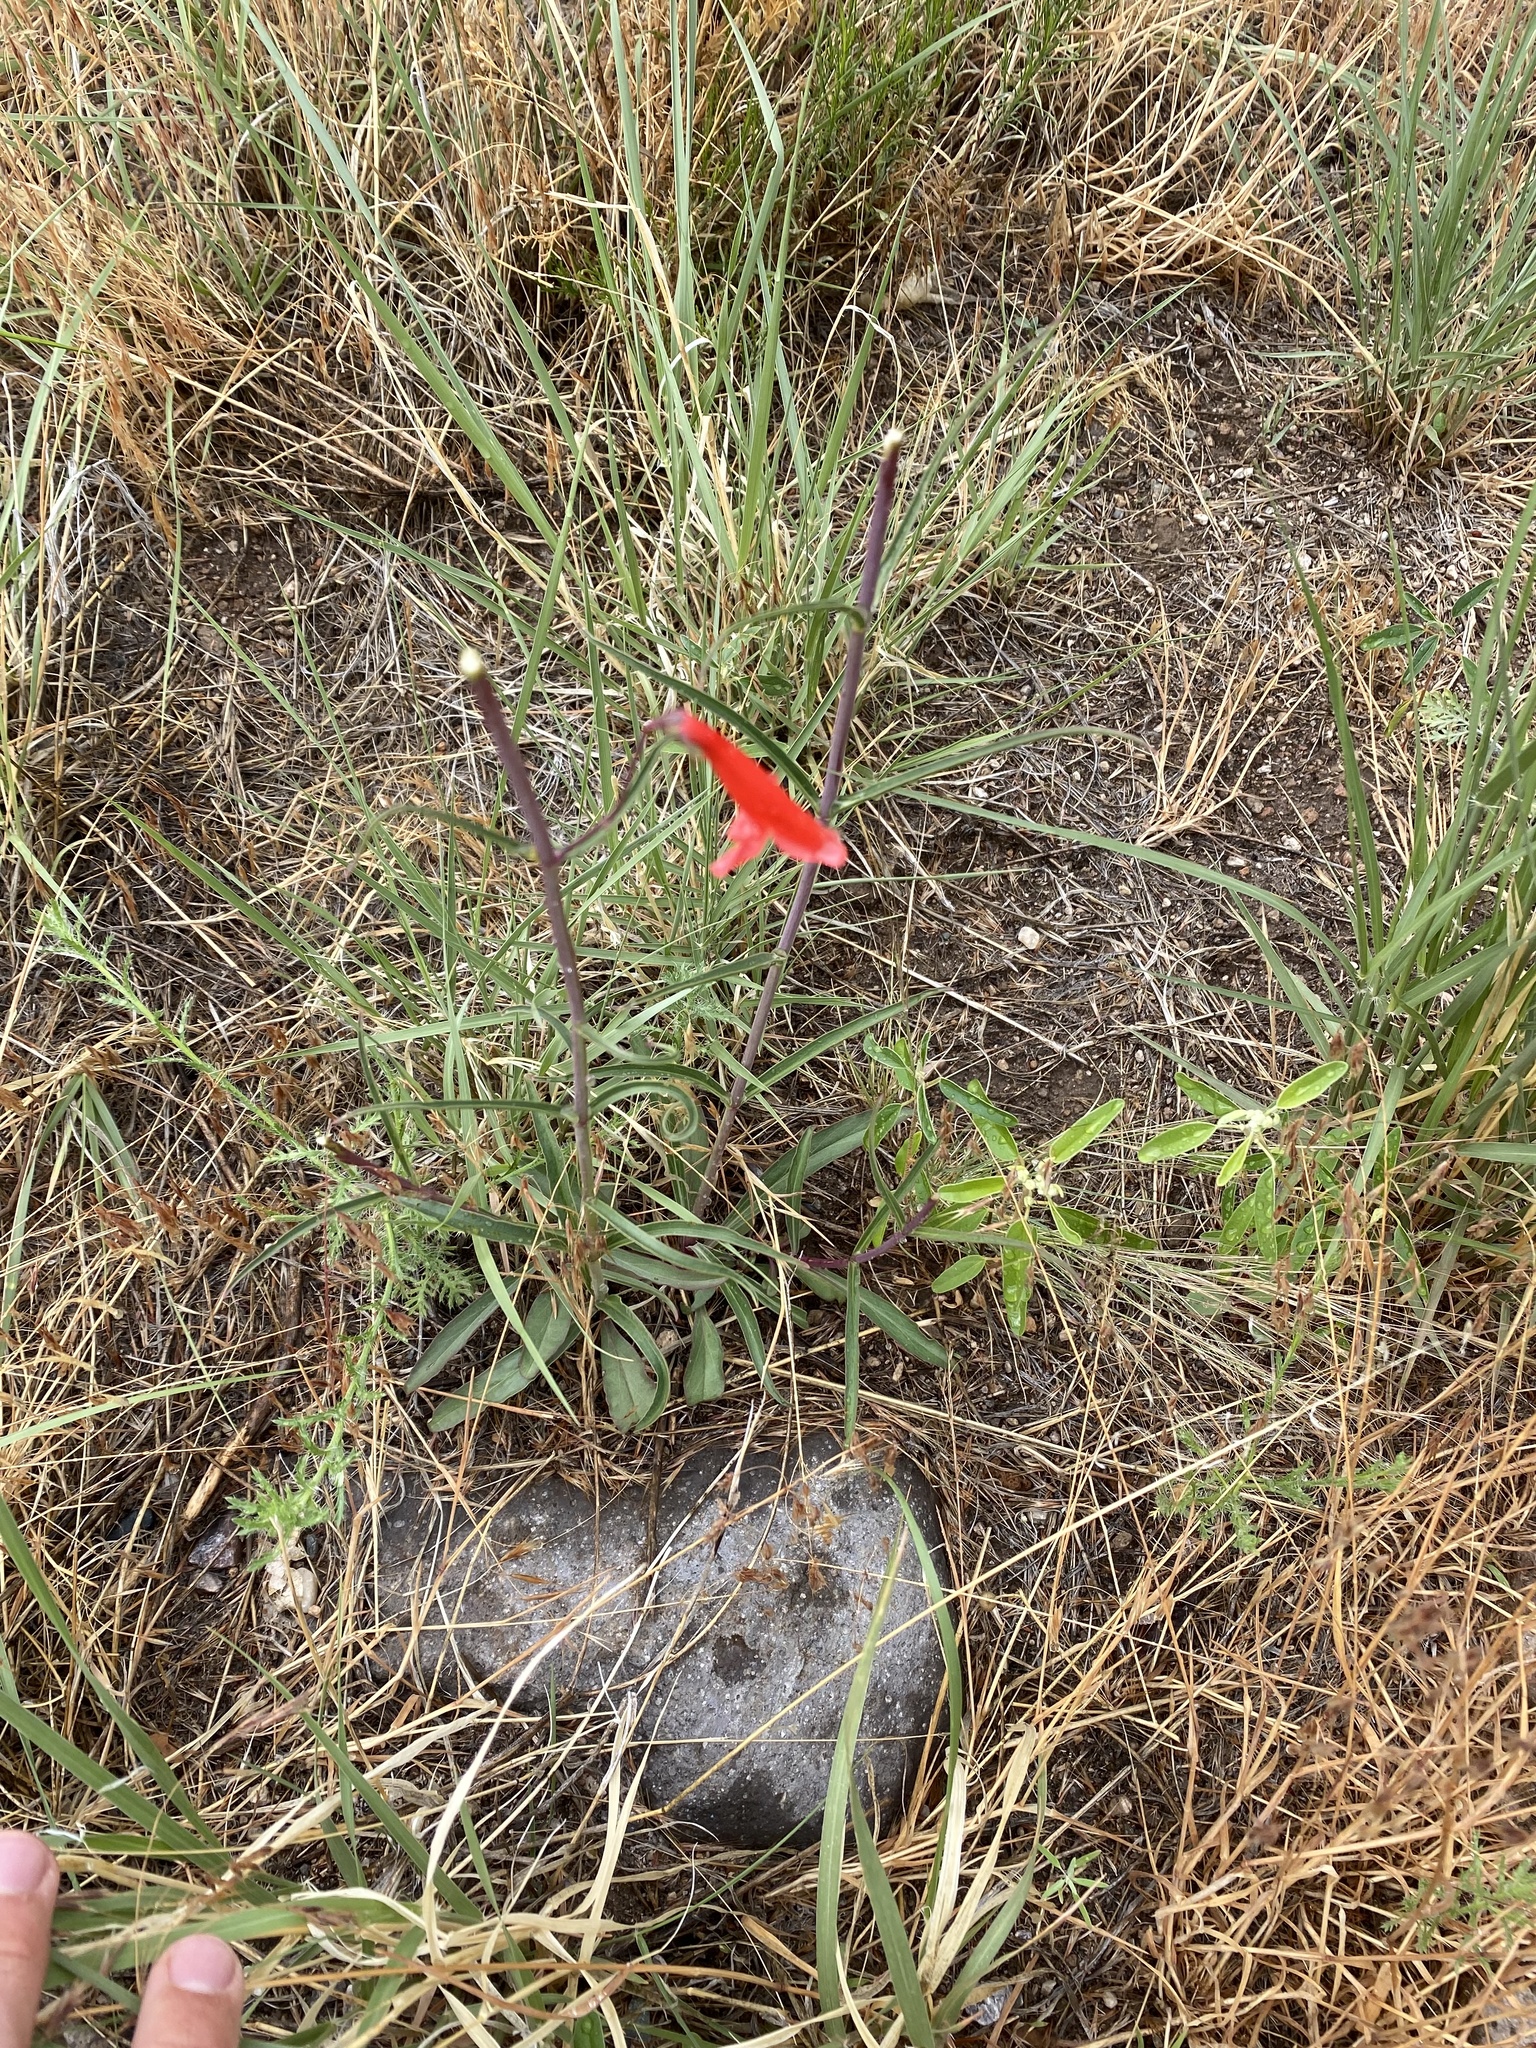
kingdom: Plantae
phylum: Tracheophyta
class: Magnoliopsida
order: Lamiales
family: Plantaginaceae
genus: Penstemon
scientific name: Penstemon barbatus
